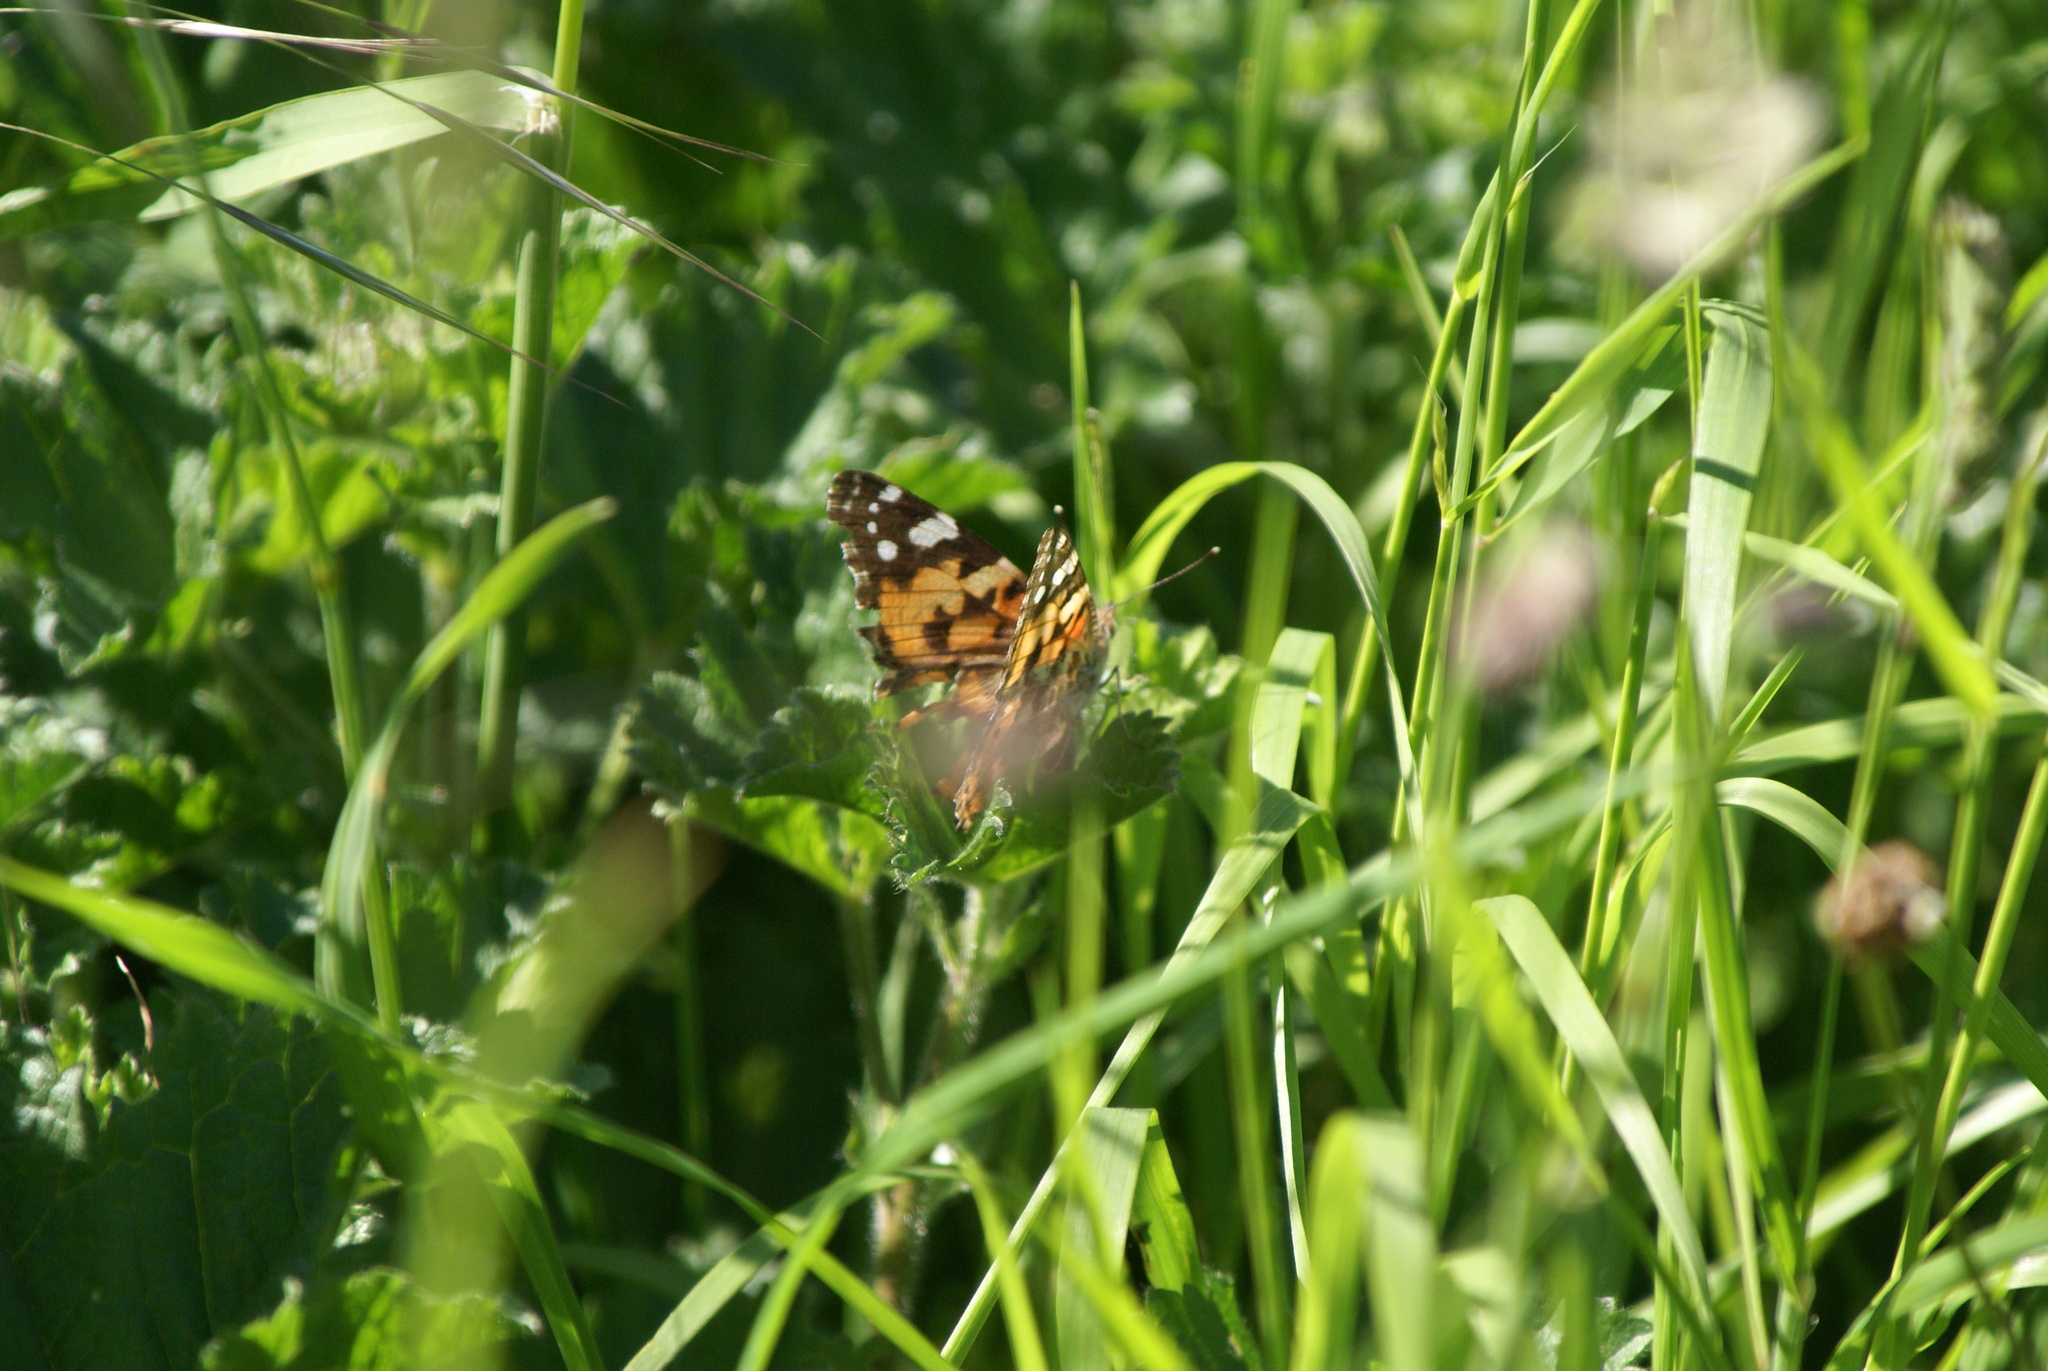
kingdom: Animalia
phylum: Arthropoda
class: Insecta
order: Lepidoptera
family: Nymphalidae
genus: Vanessa
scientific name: Vanessa cardui
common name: Painted lady
